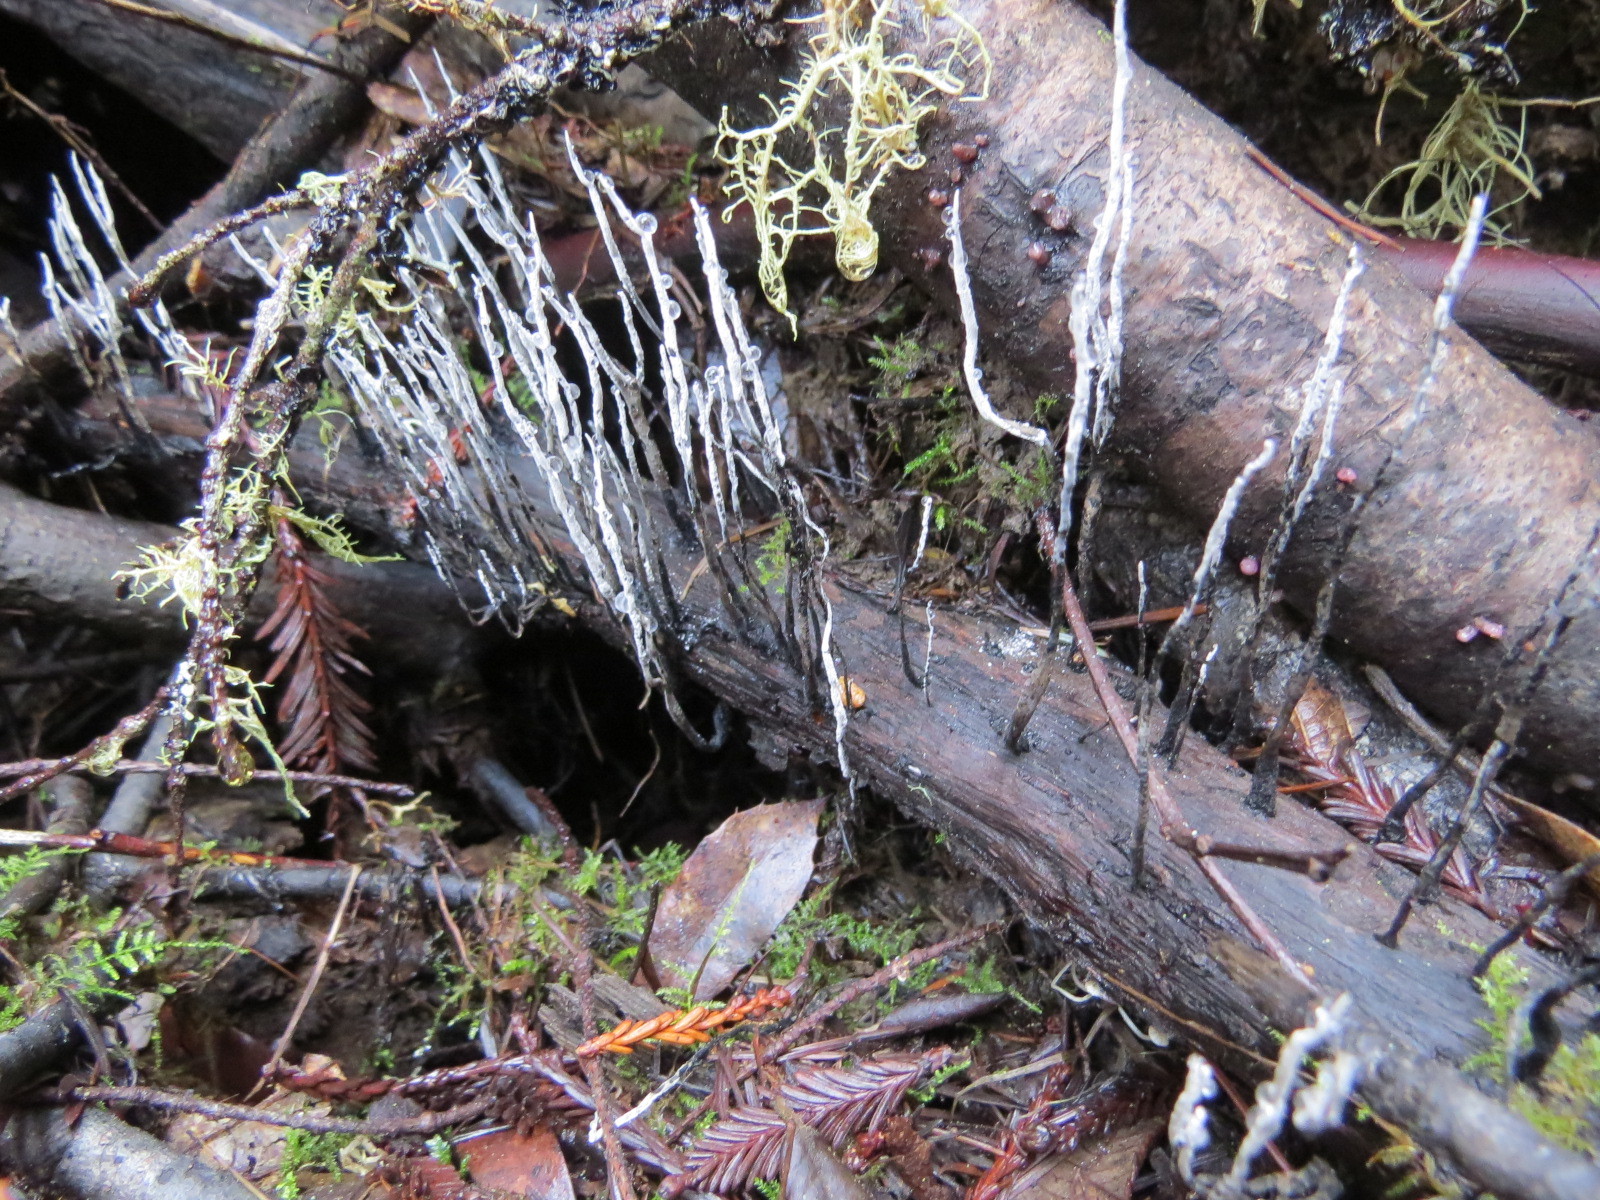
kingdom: Fungi
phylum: Ascomycota
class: Sordariomycetes
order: Xylariales
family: Xylariaceae
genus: Xylaria
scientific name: Xylaria hypoxylon
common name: Candle-snuff fungus
